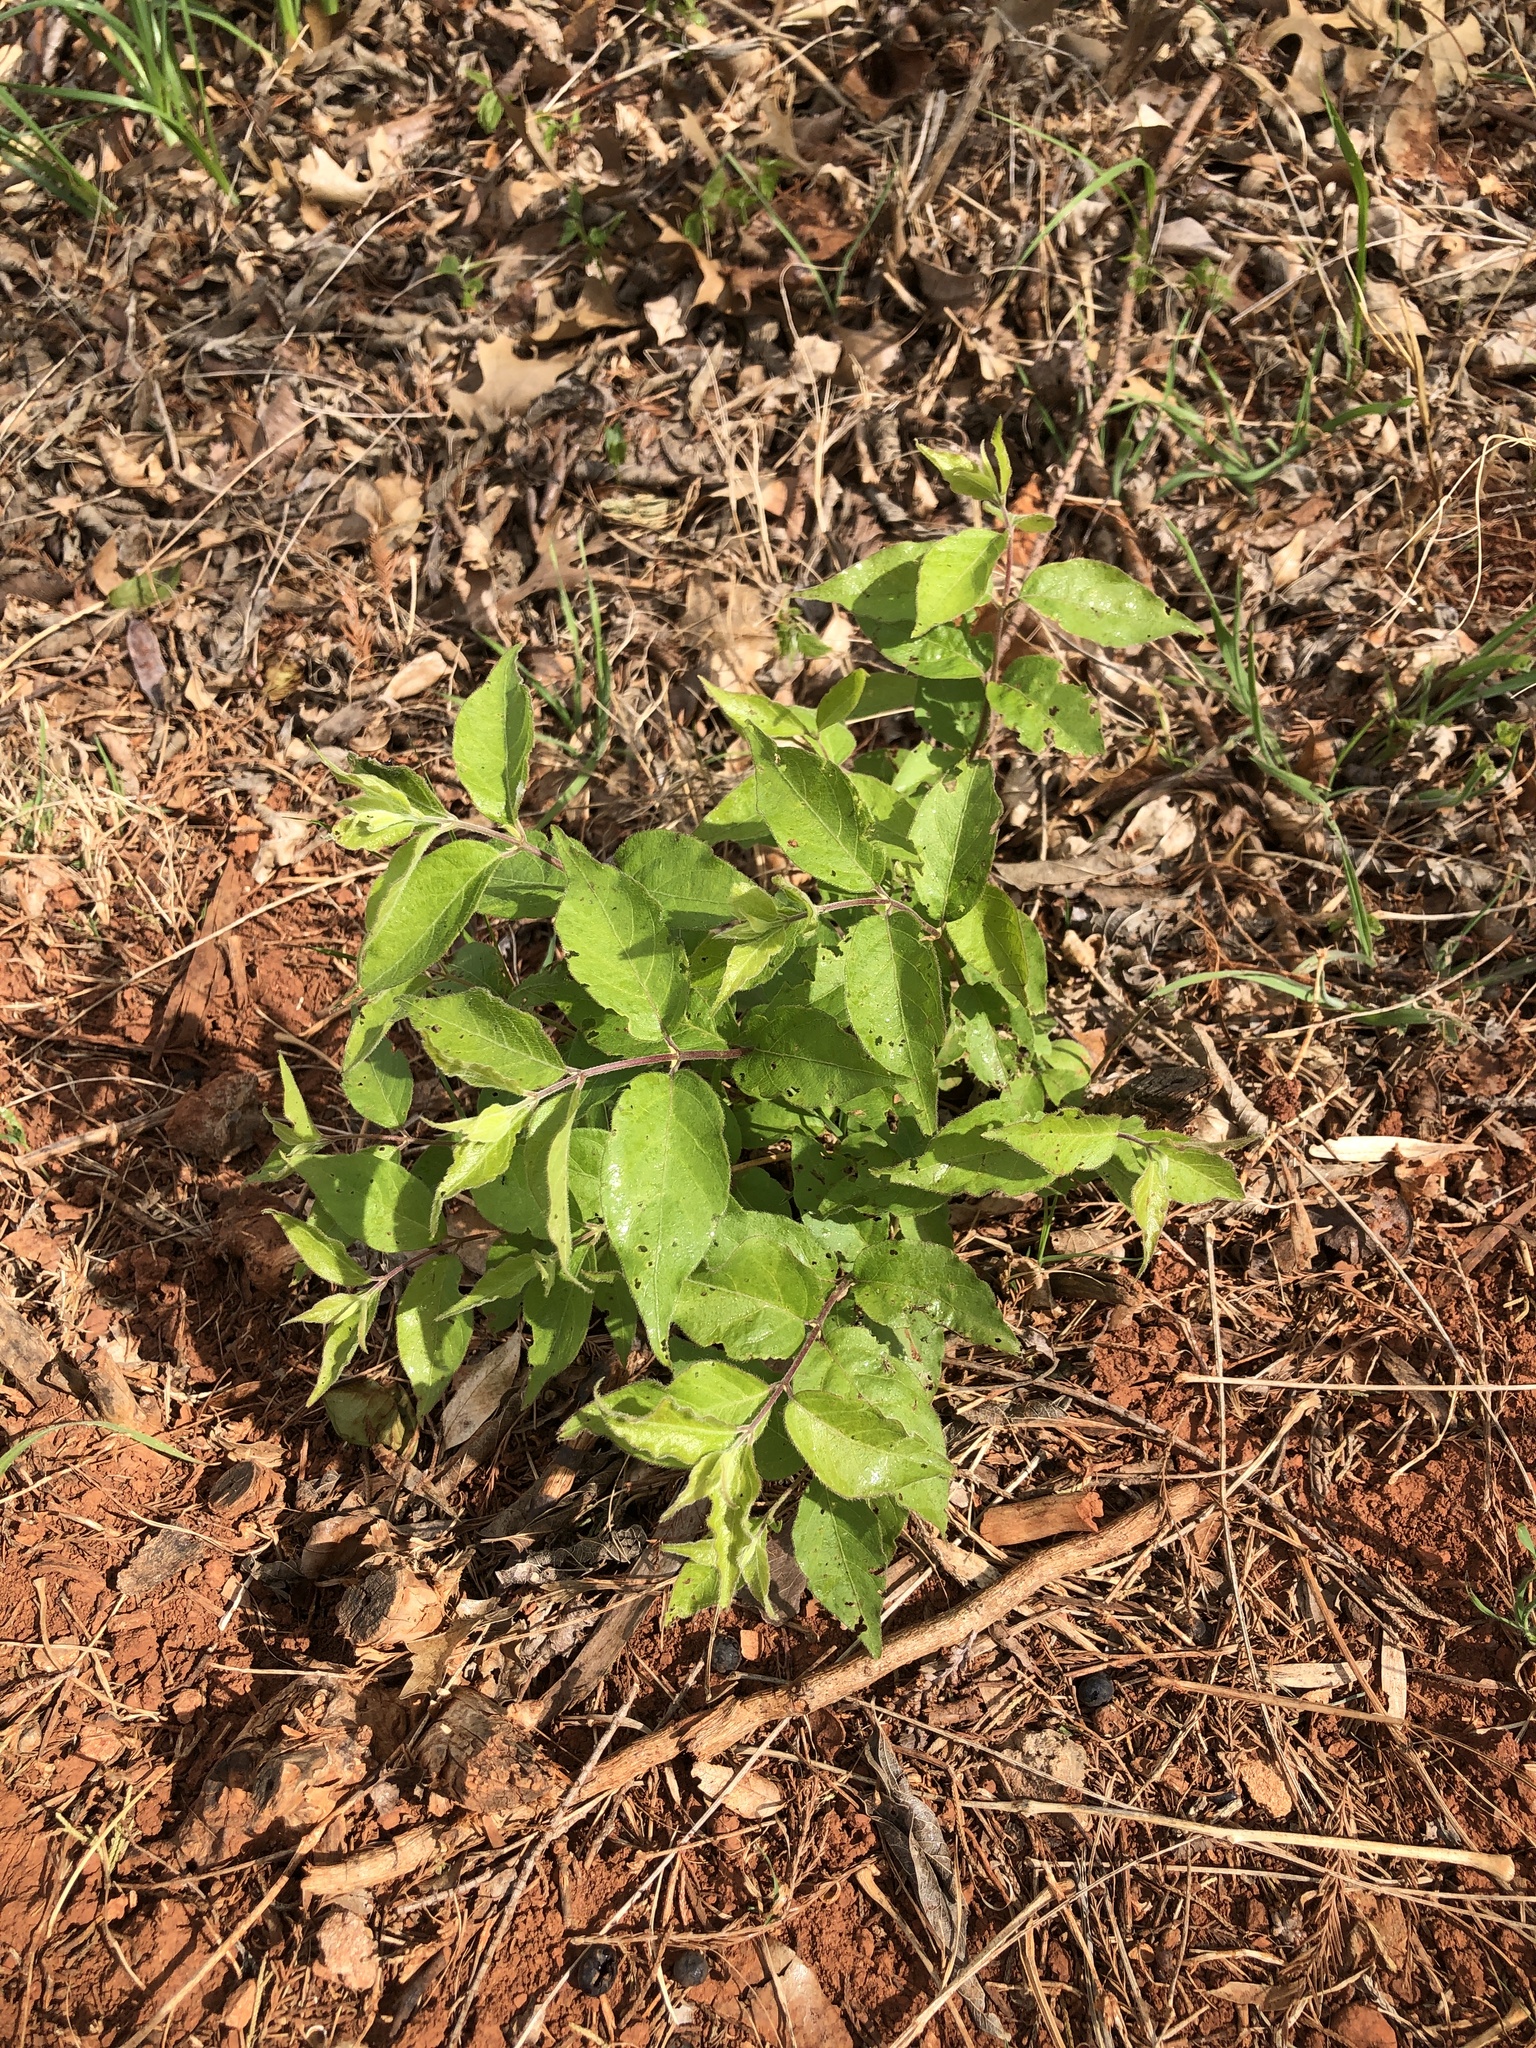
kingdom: Plantae
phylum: Tracheophyta
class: Magnoliopsida
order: Dipsacales
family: Caprifoliaceae
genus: Lonicera
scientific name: Lonicera maackii
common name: Amur honeysuckle
